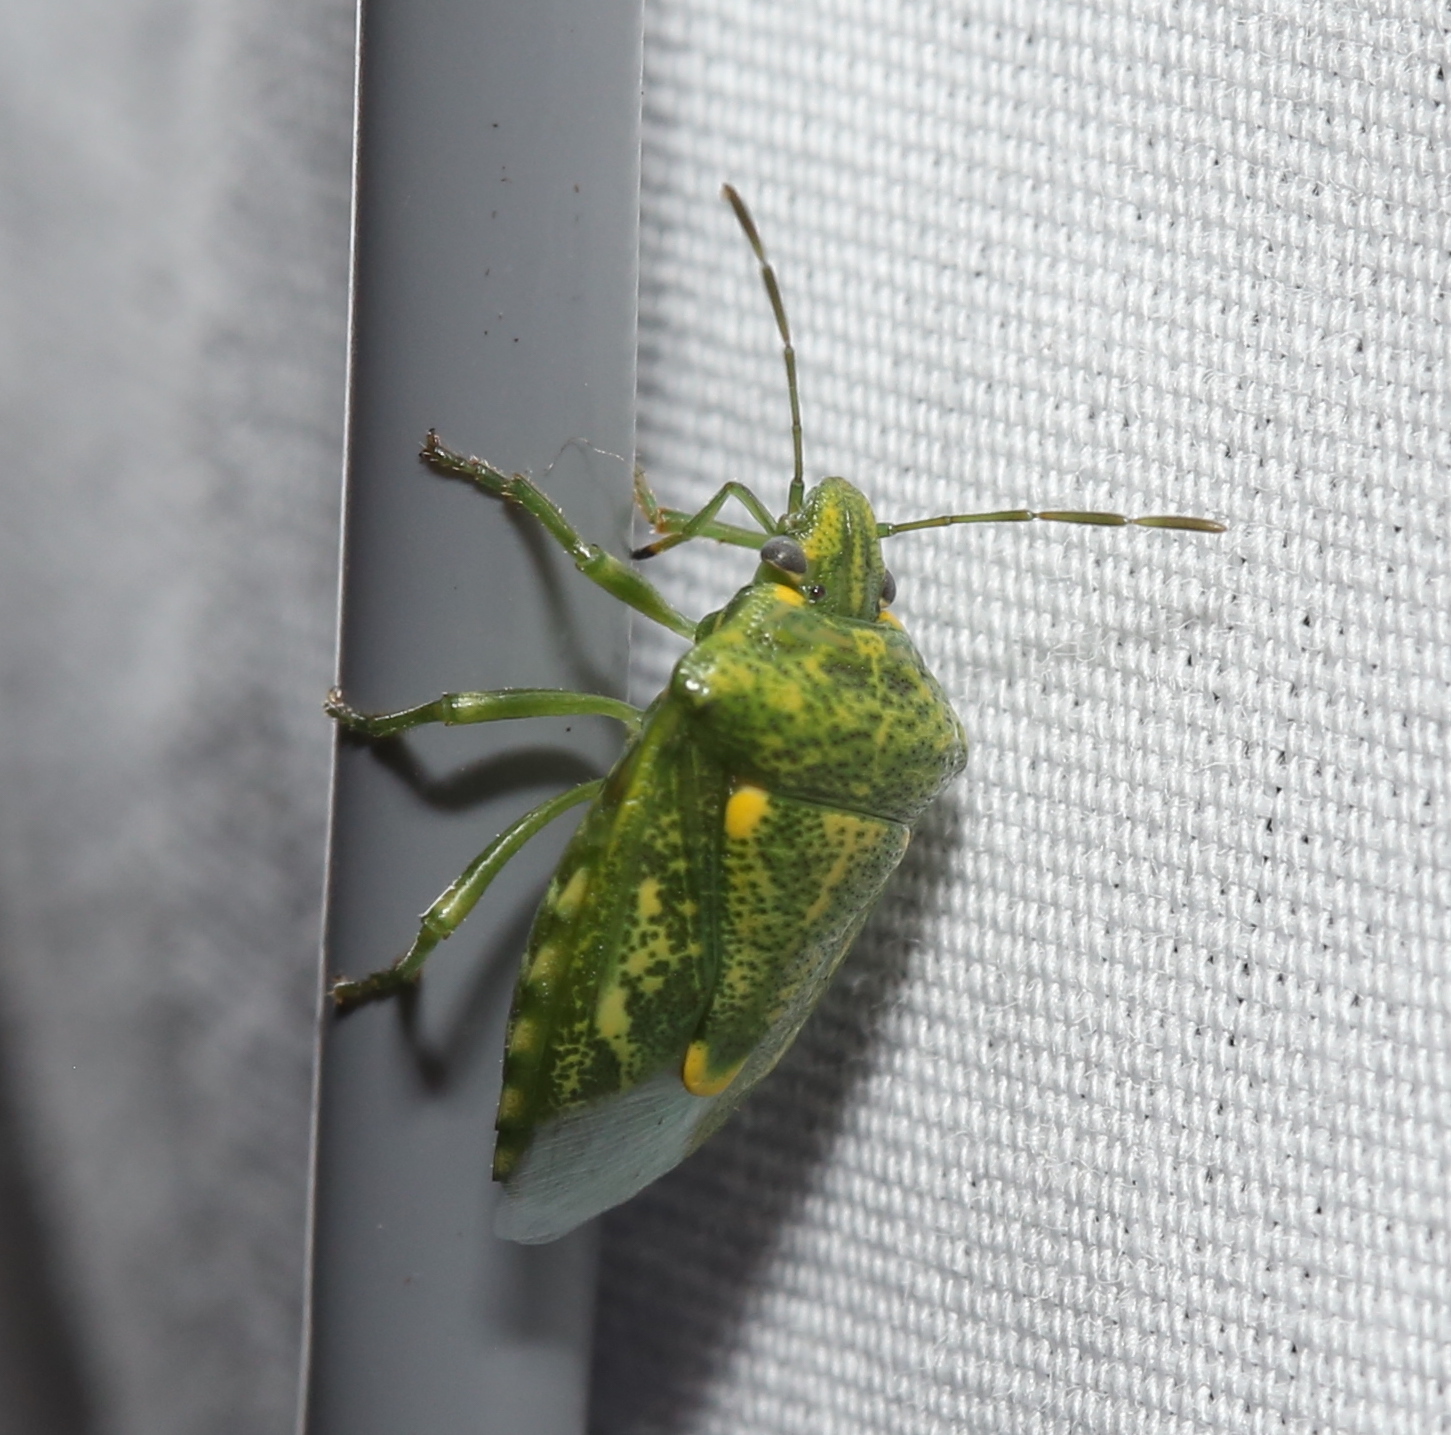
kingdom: Animalia
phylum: Arthropoda
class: Insecta
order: Hemiptera
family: Pentatomidae
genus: Banasa
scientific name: Banasa euchlora
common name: Cedar berry bug
